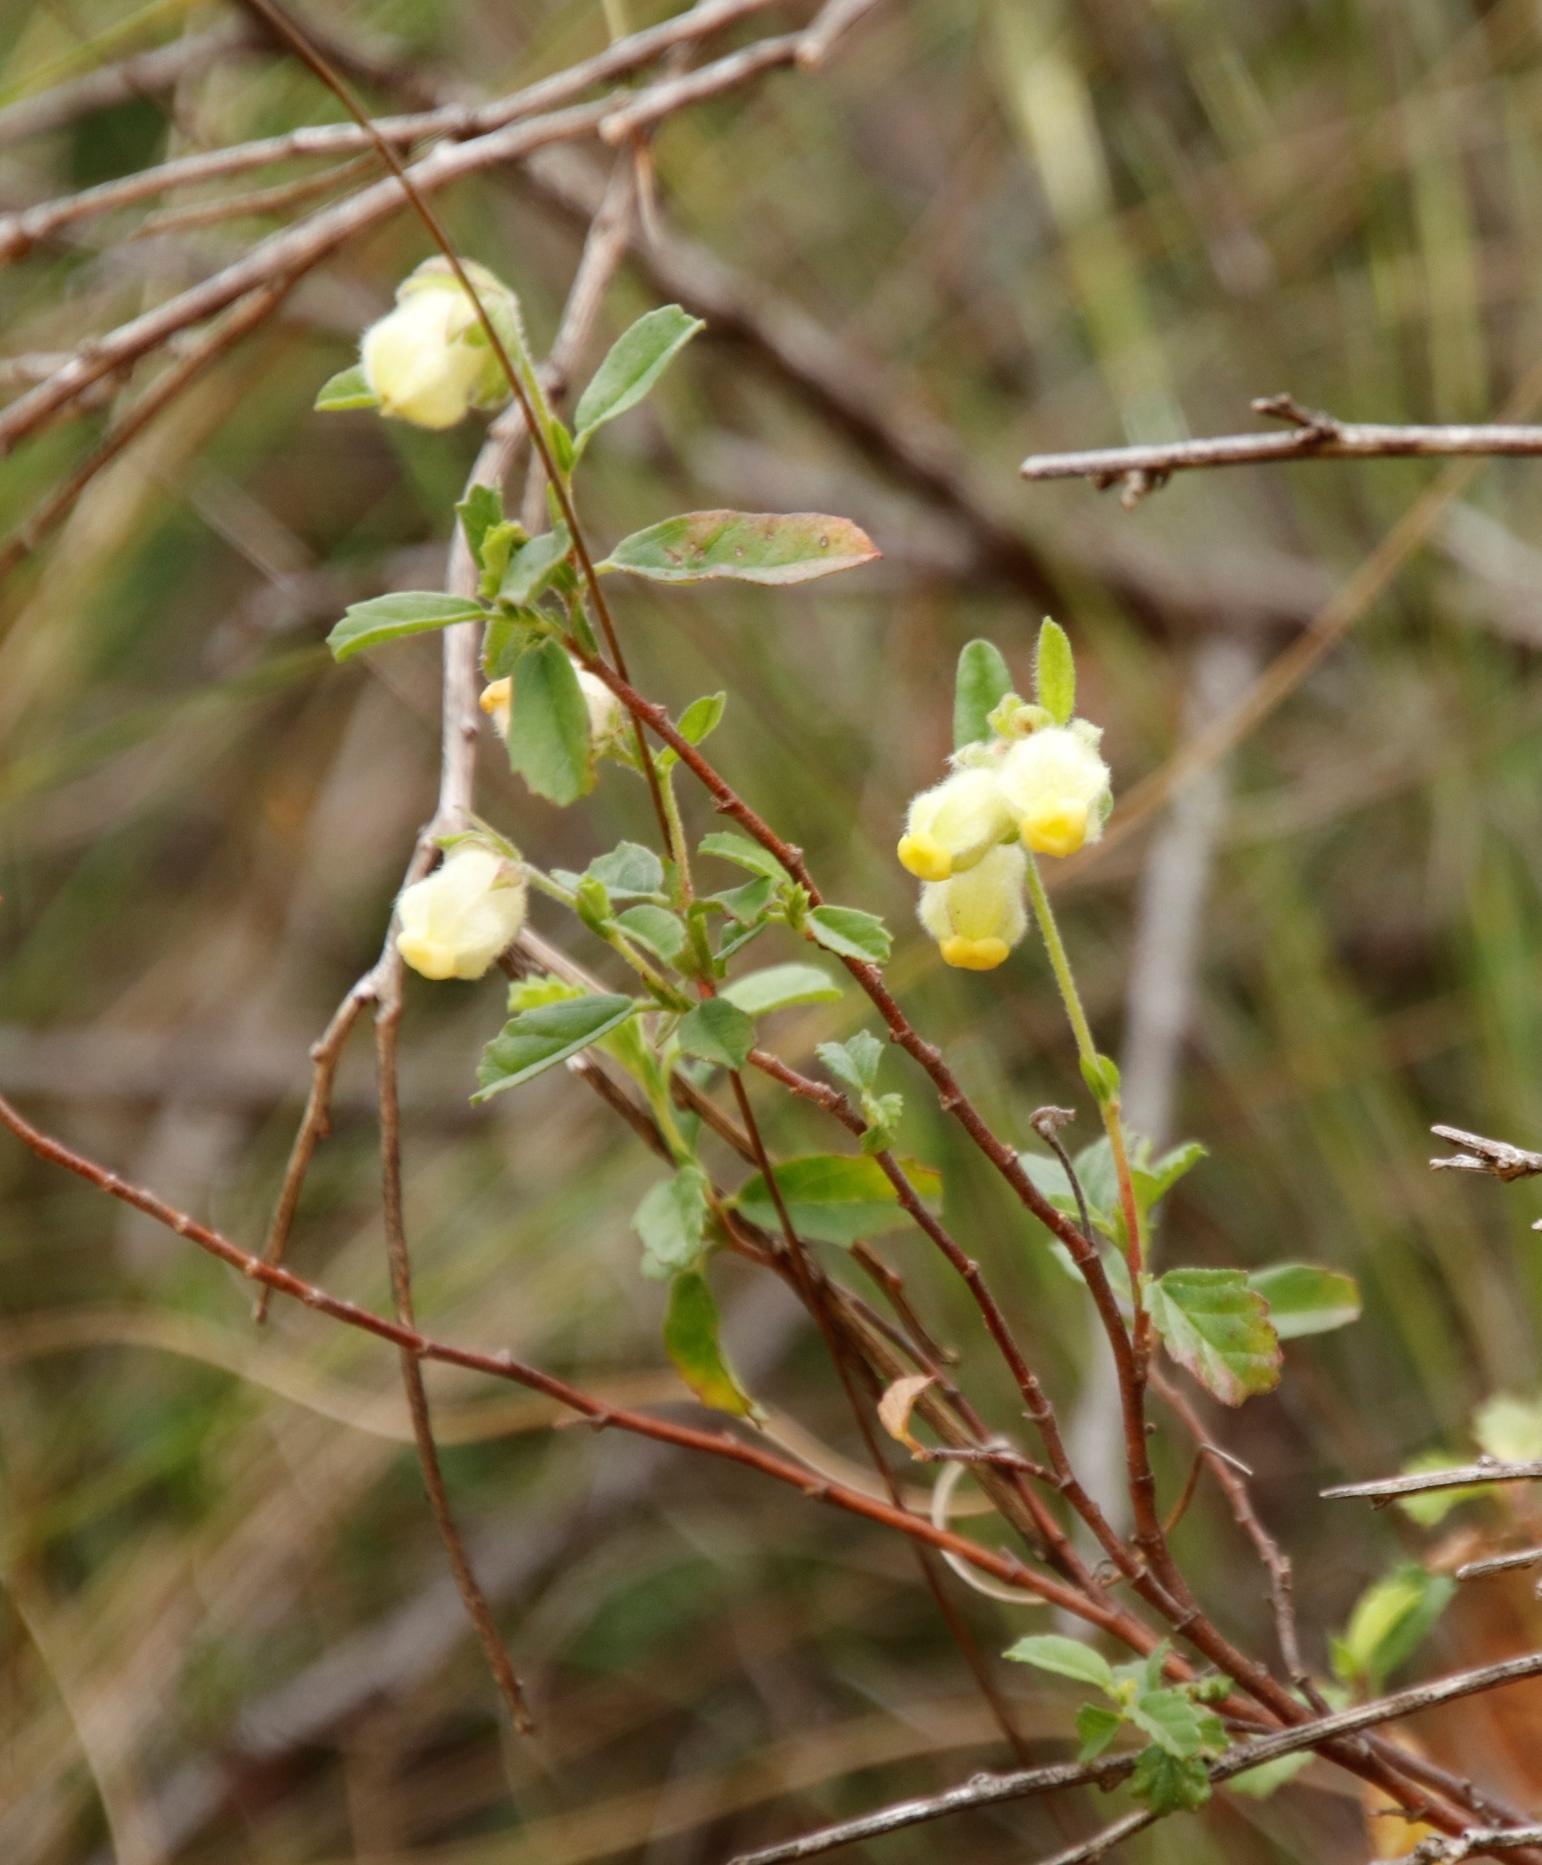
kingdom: Plantae
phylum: Tracheophyta
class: Magnoliopsida
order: Malvales
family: Malvaceae
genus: Hermannia
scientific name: Hermannia hyssopifolia
